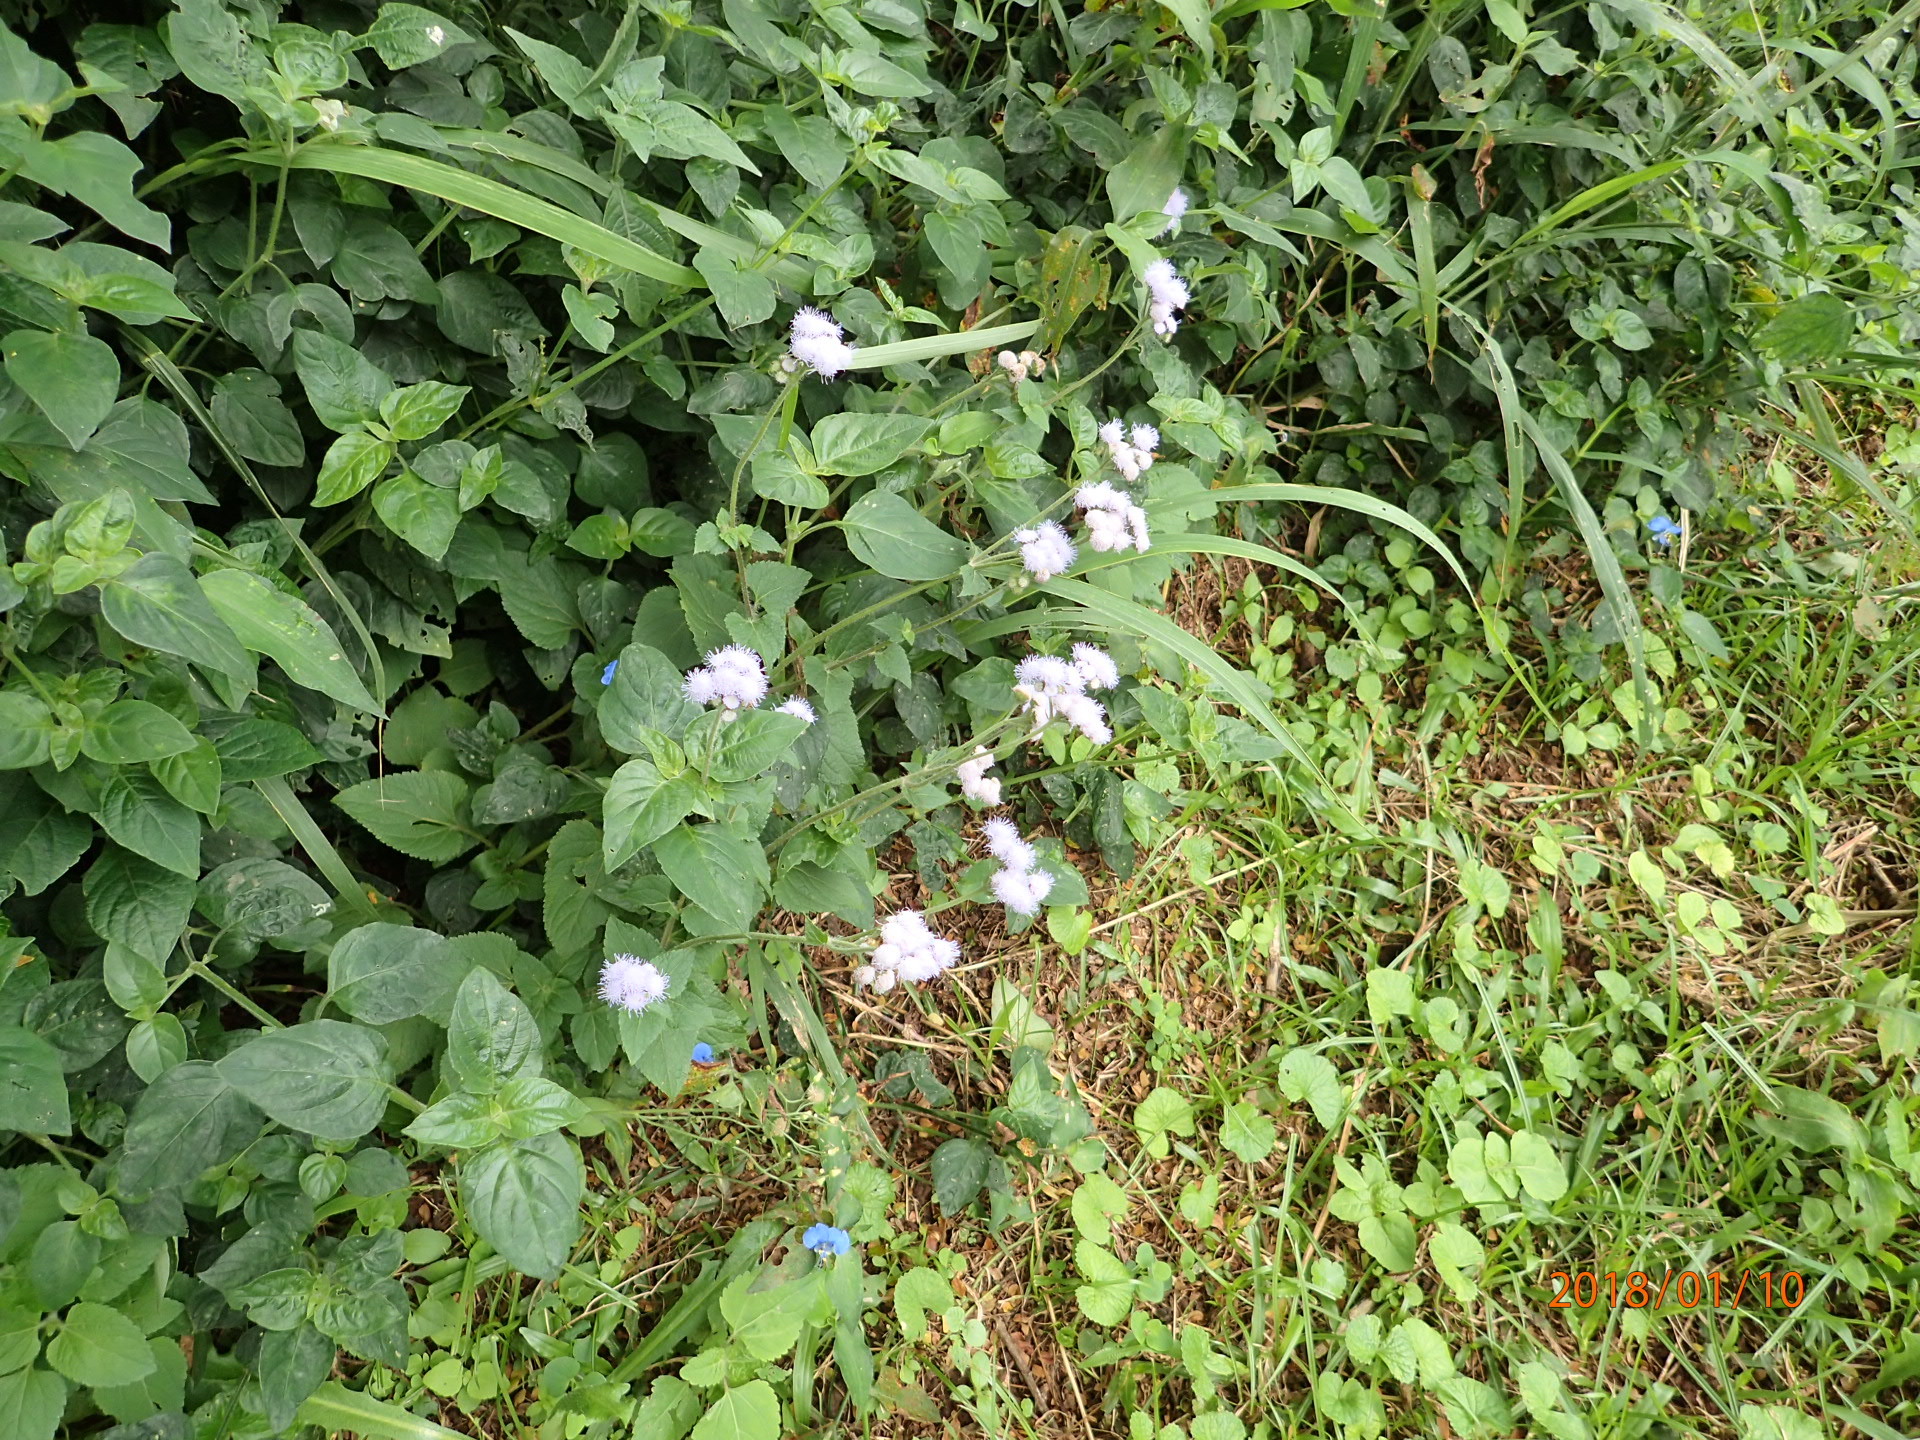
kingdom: Plantae
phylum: Tracheophyta
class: Magnoliopsida
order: Asterales
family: Asteraceae
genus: Ageratum
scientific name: Ageratum houstonianum
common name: Bluemink
